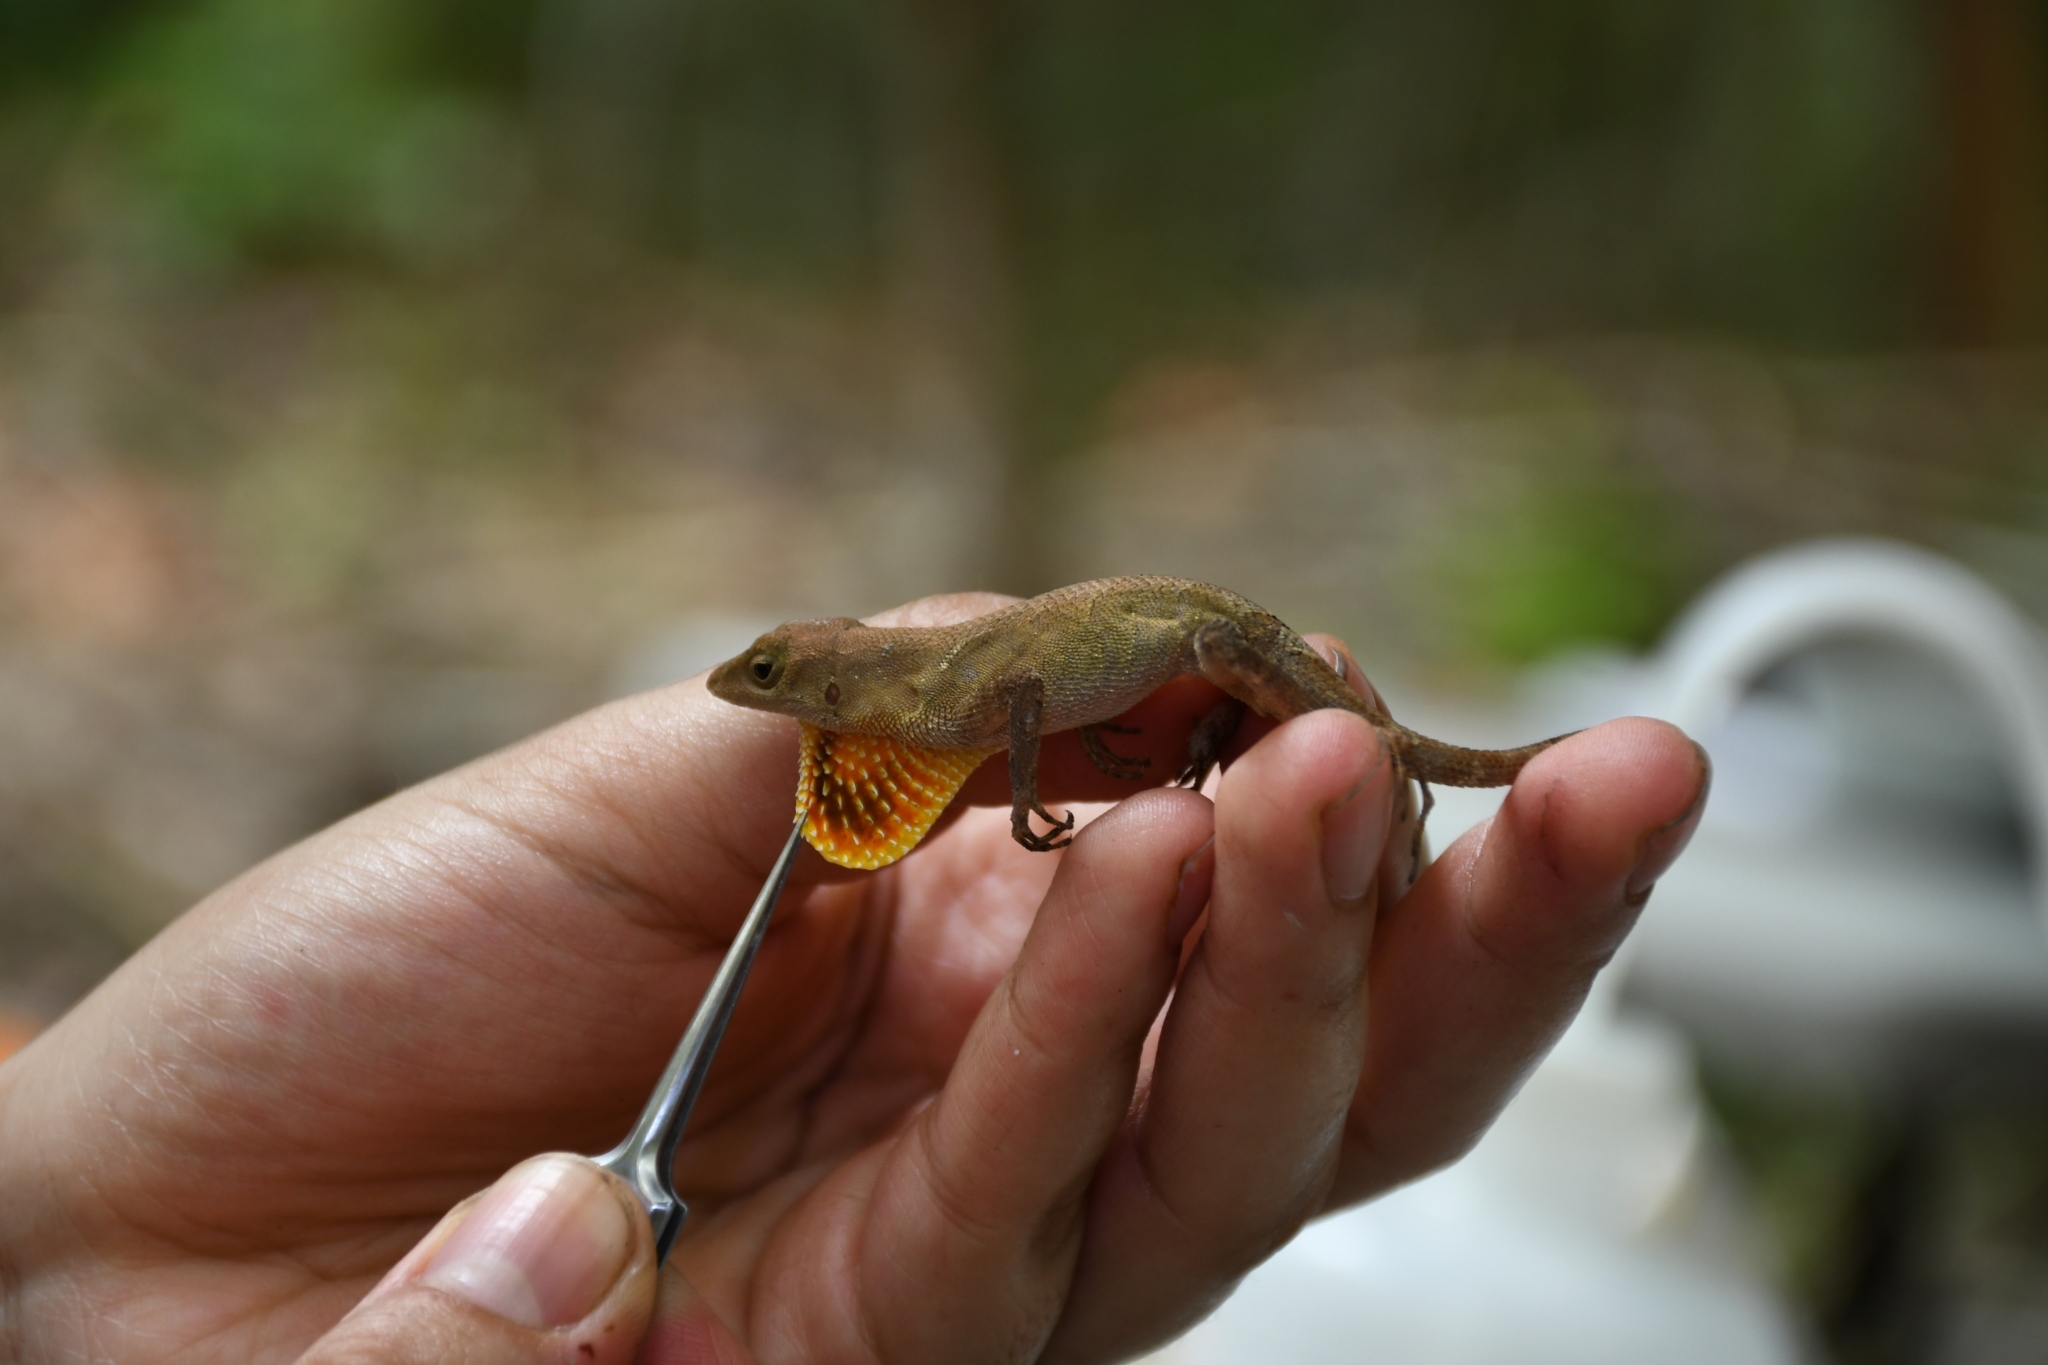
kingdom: Animalia
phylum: Chordata
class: Squamata
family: Dactyloidae
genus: Anolis
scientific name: Anolis tropidonotus
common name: Greater scaly anole
